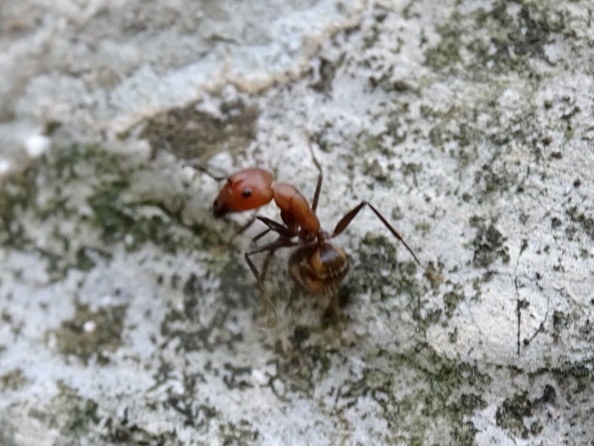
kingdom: Animalia
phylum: Arthropoda
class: Insecta
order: Hymenoptera
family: Formicidae
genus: Camponotus
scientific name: Camponotus nicobarensis
